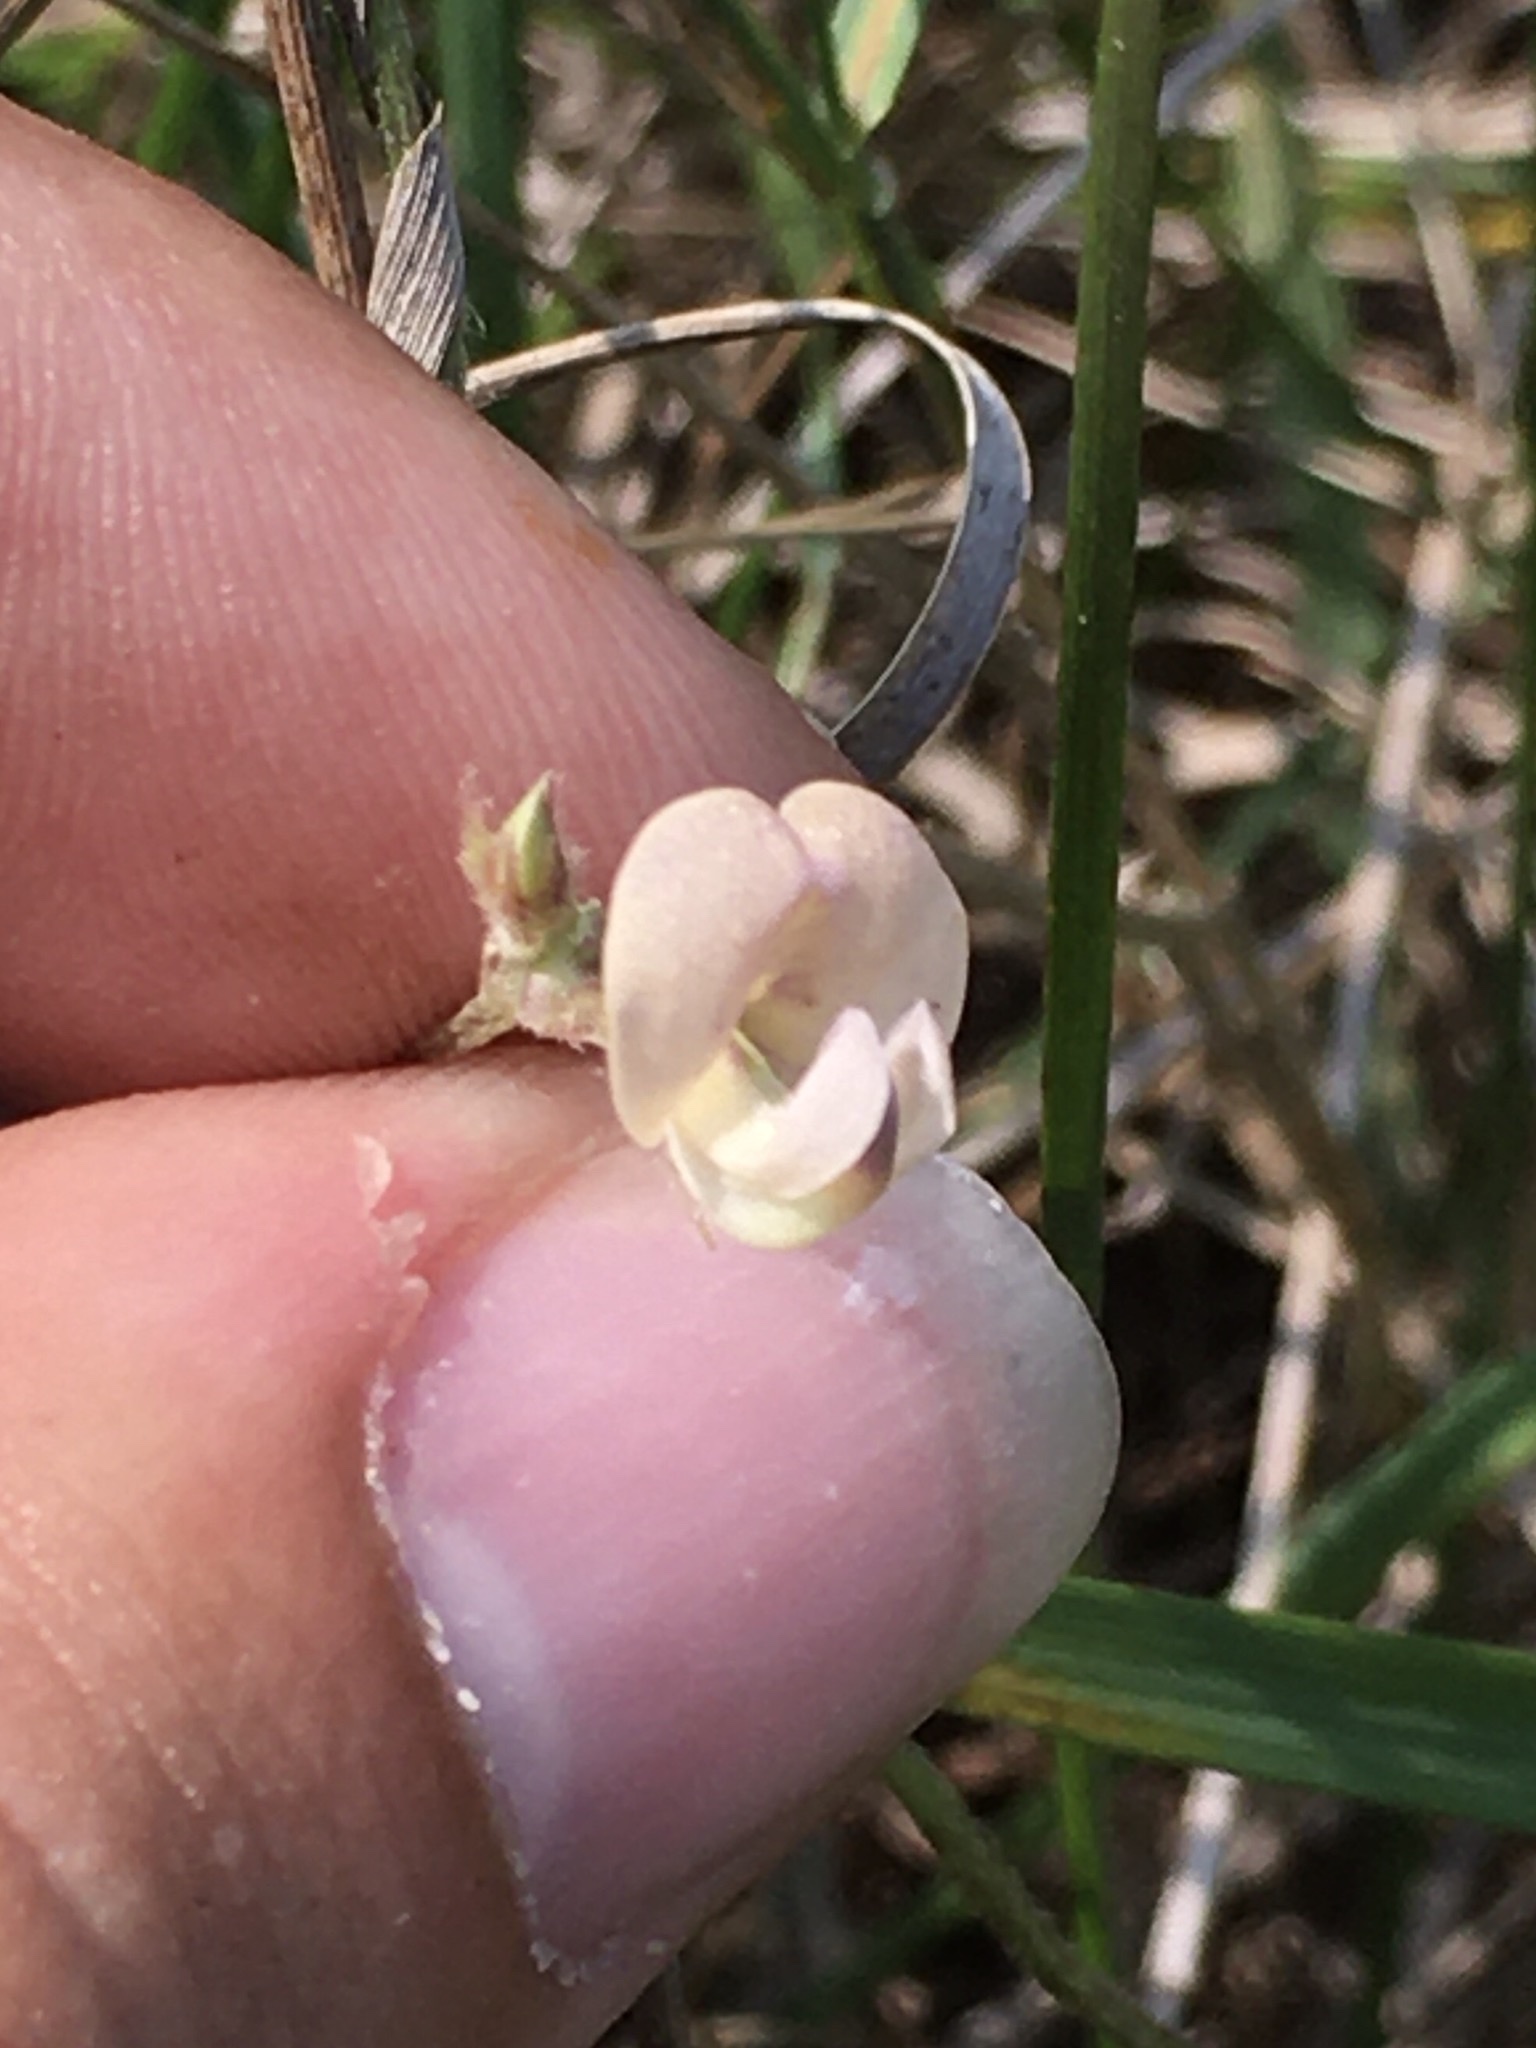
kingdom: Plantae
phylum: Tracheophyta
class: Magnoliopsida
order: Fabales
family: Fabaceae
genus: Strophostyles
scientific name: Strophostyles leiosperma
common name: Smooth-seed wild bean
